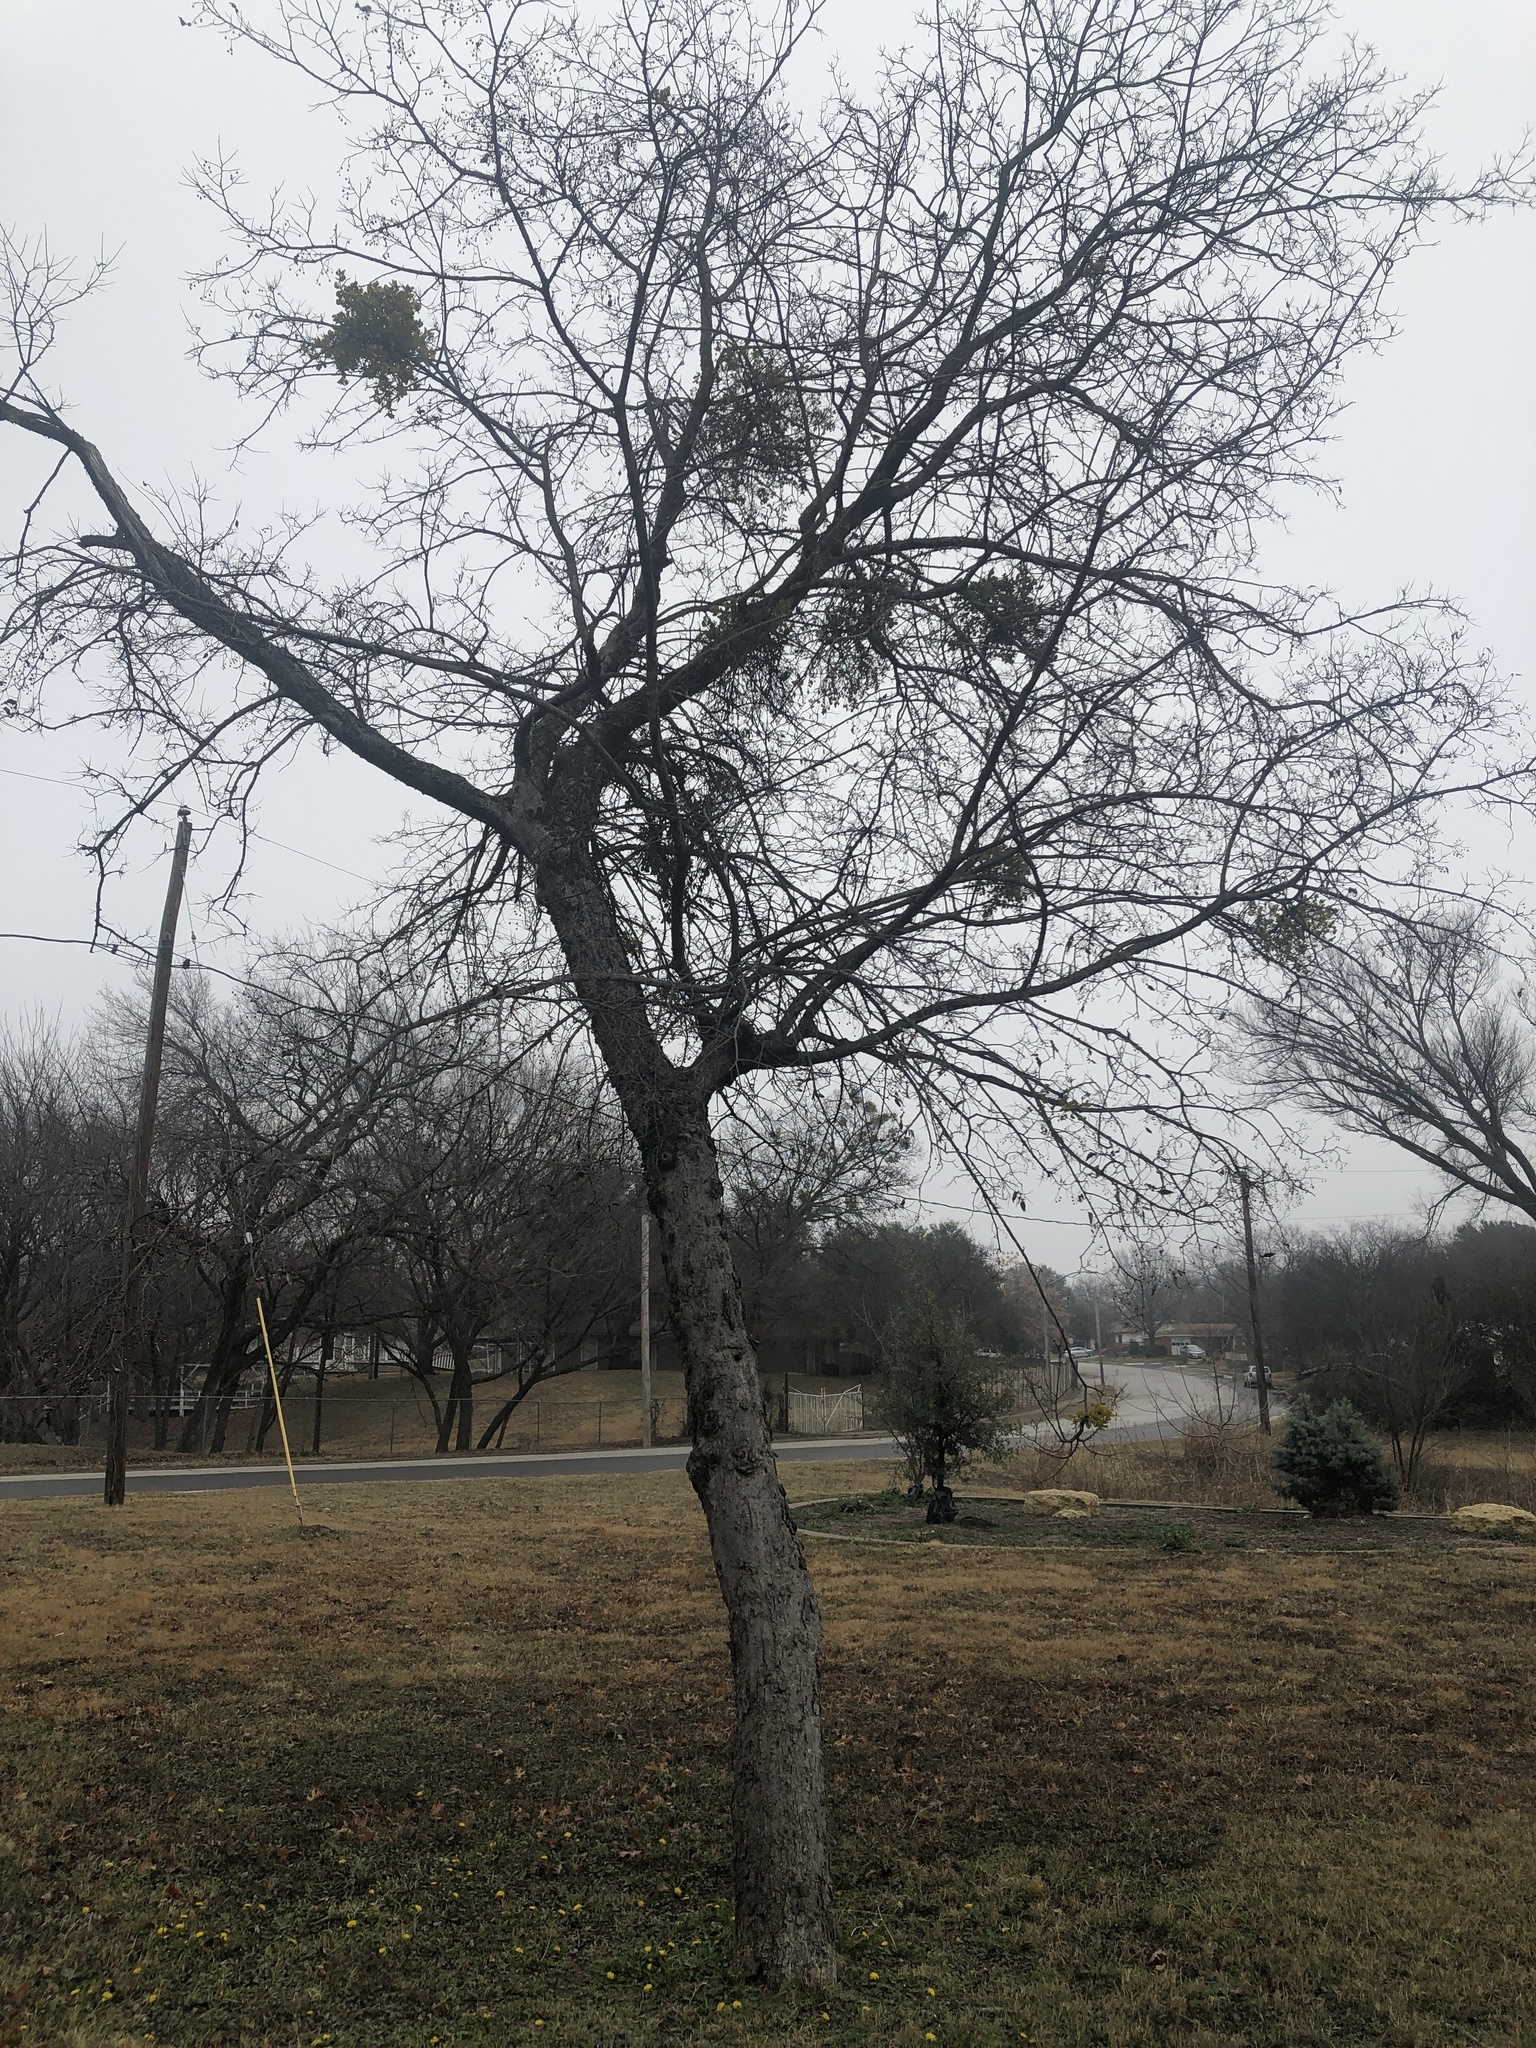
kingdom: Plantae
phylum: Tracheophyta
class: Magnoliopsida
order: Rosales
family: Cannabaceae
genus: Celtis
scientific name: Celtis laevigata
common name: Sugarberry
